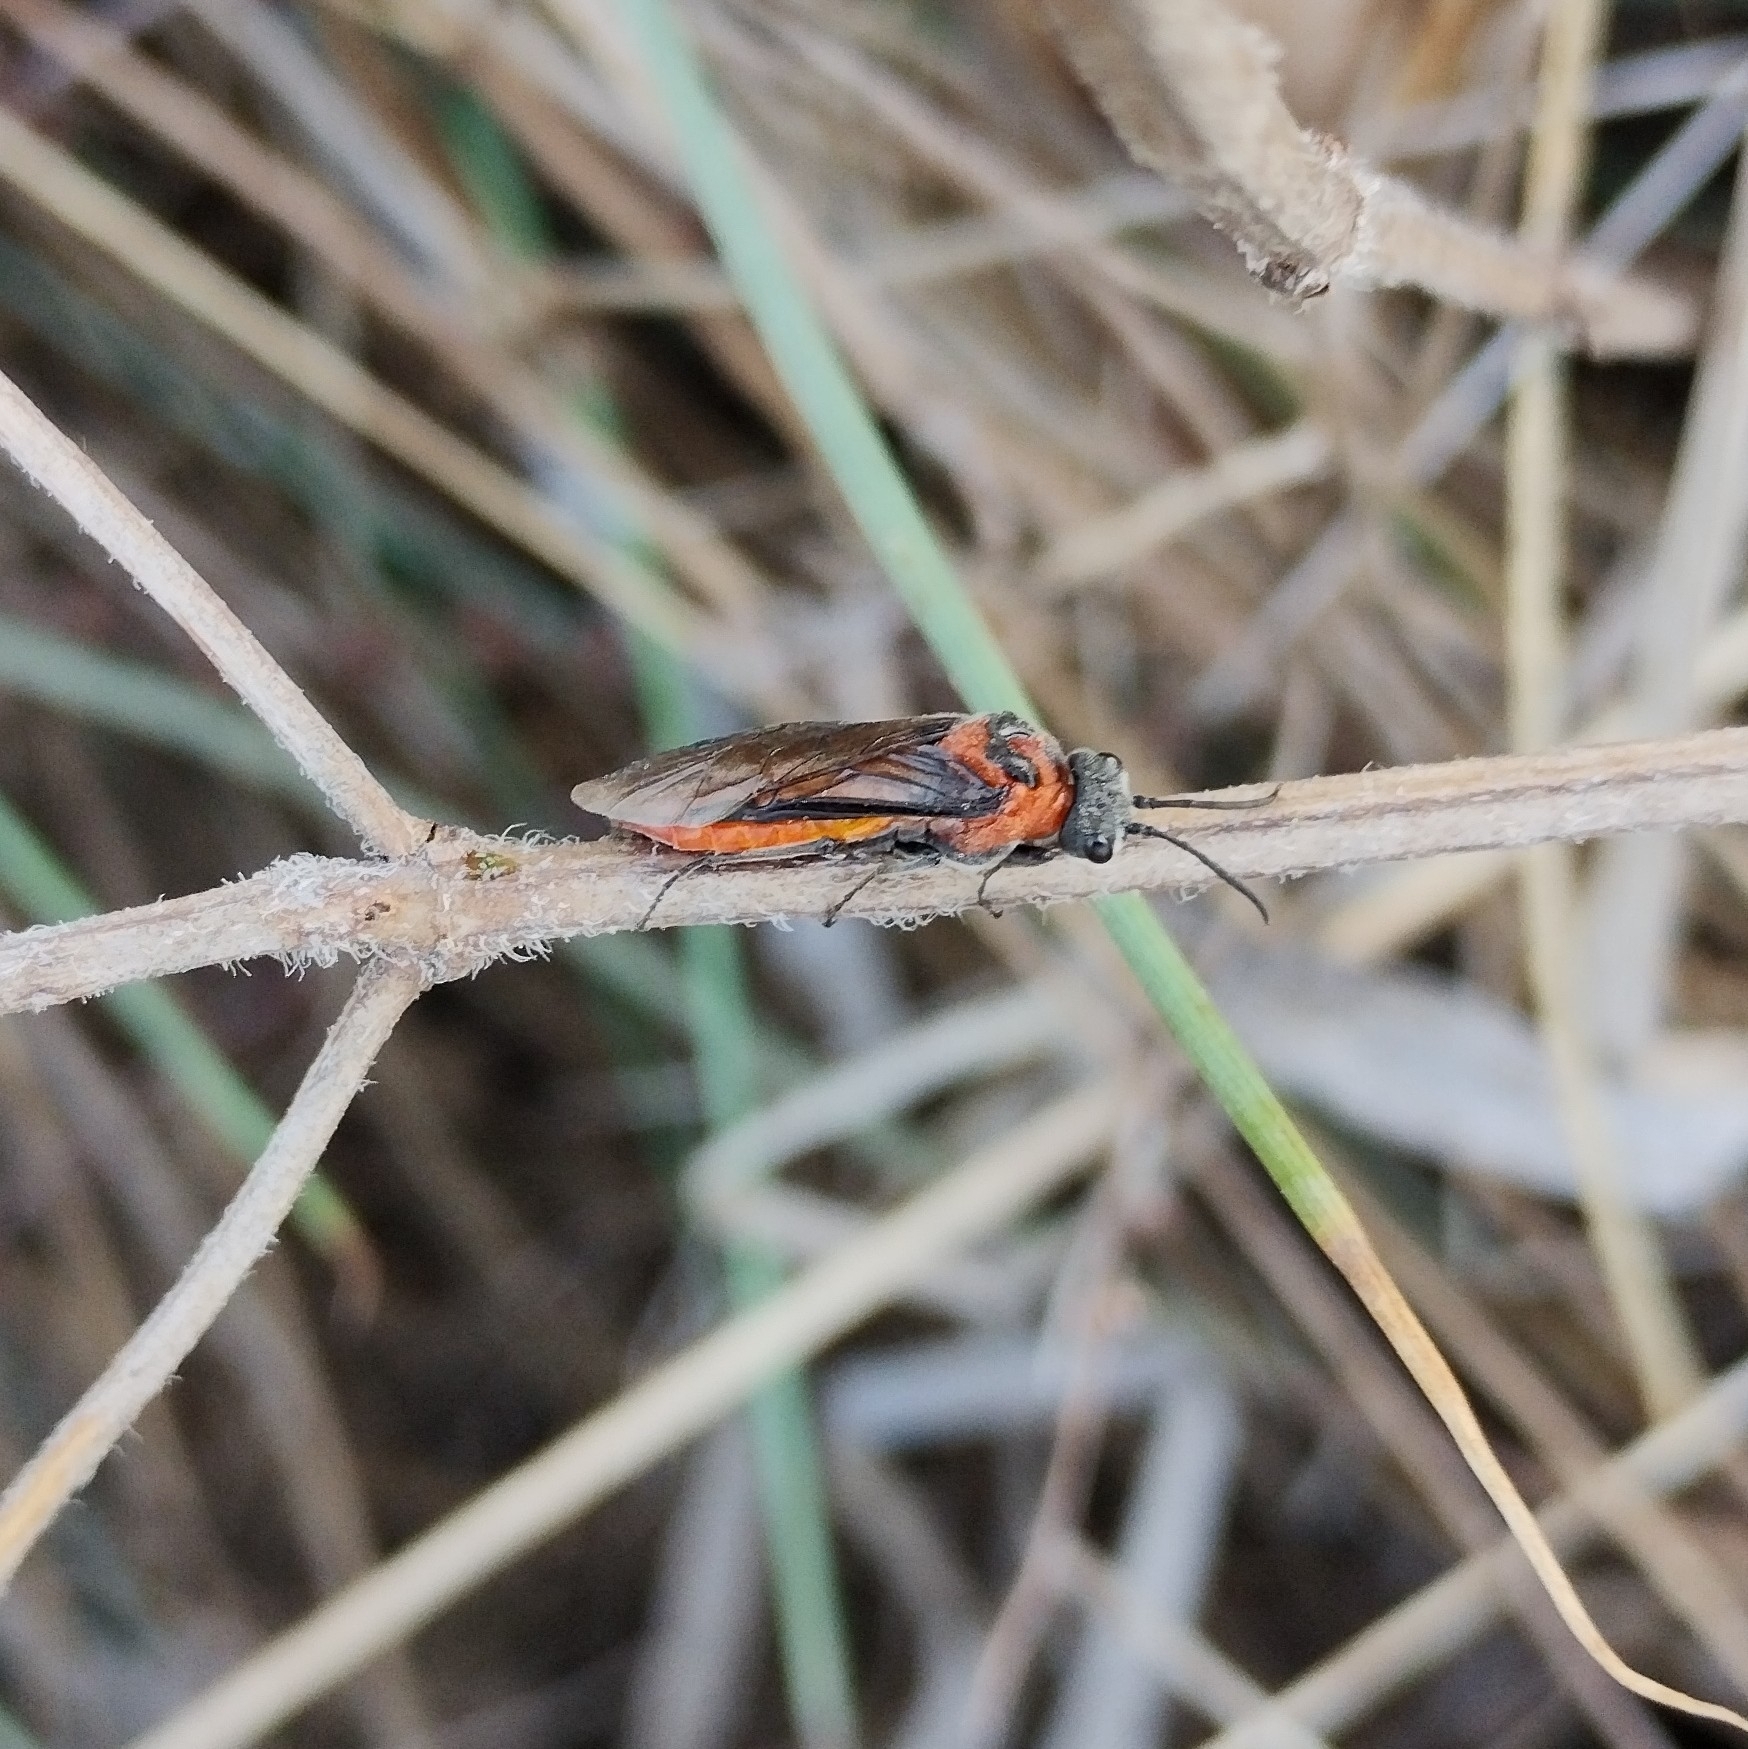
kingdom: Animalia
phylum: Arthropoda
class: Insecta
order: Hymenoptera
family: Tenthredinidae
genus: Dolerus
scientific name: Dolerus triplicatus
